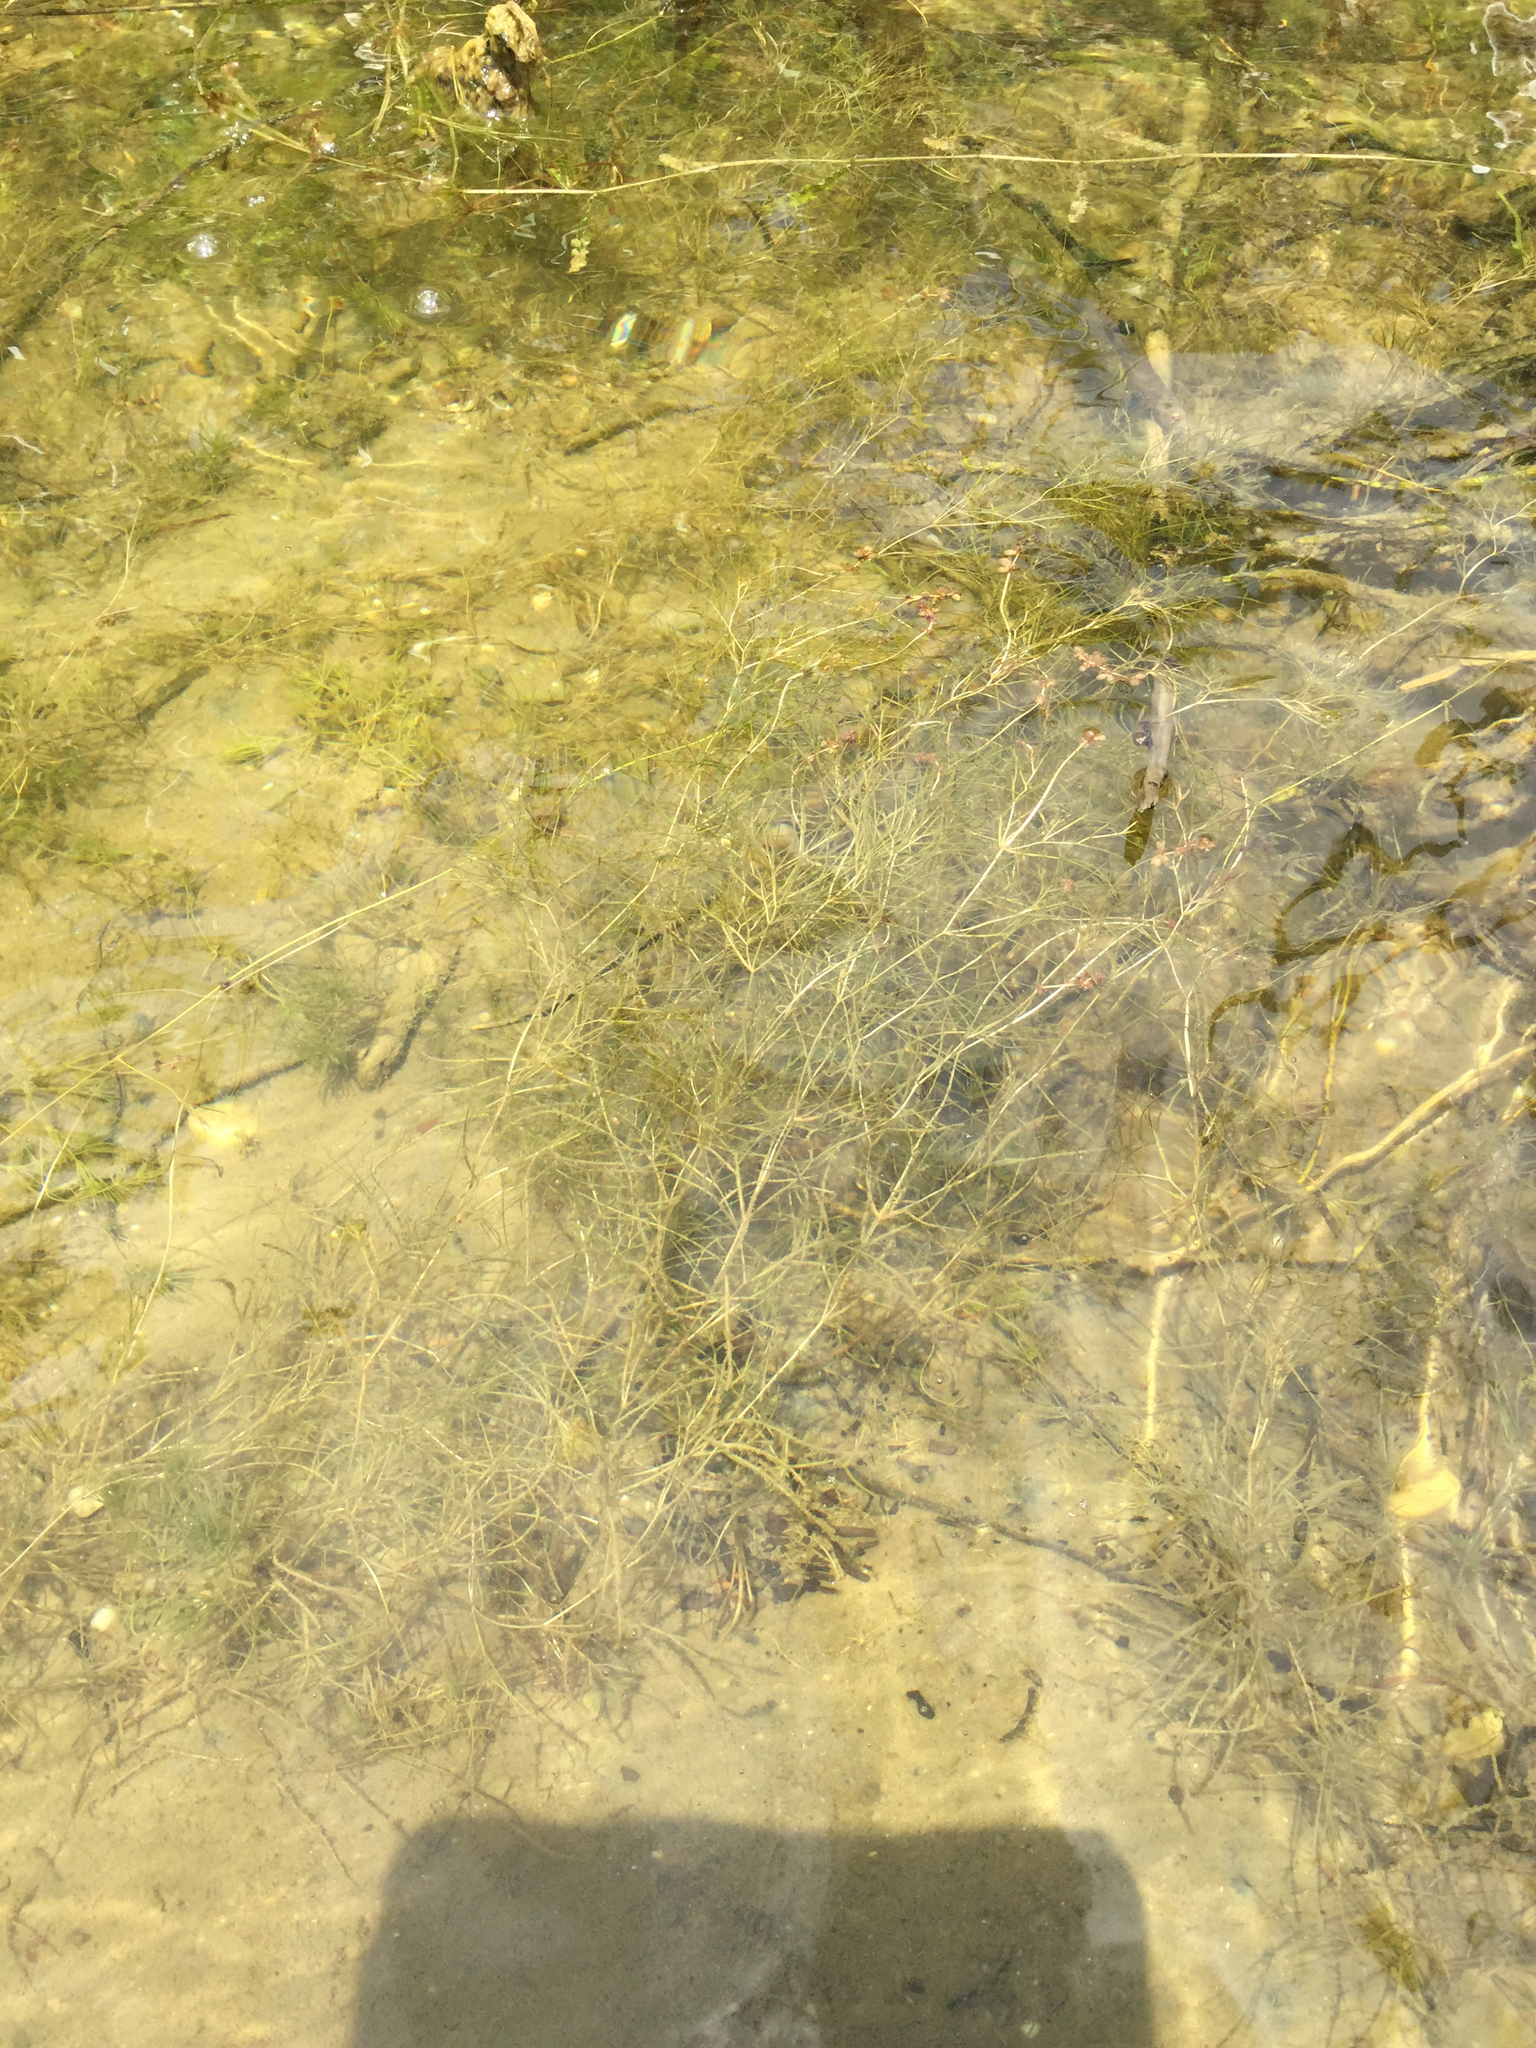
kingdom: Plantae
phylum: Tracheophyta
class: Liliopsida
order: Alismatales
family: Potamogetonaceae
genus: Stuckenia
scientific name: Stuckenia pectinata
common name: Sago pondweed
